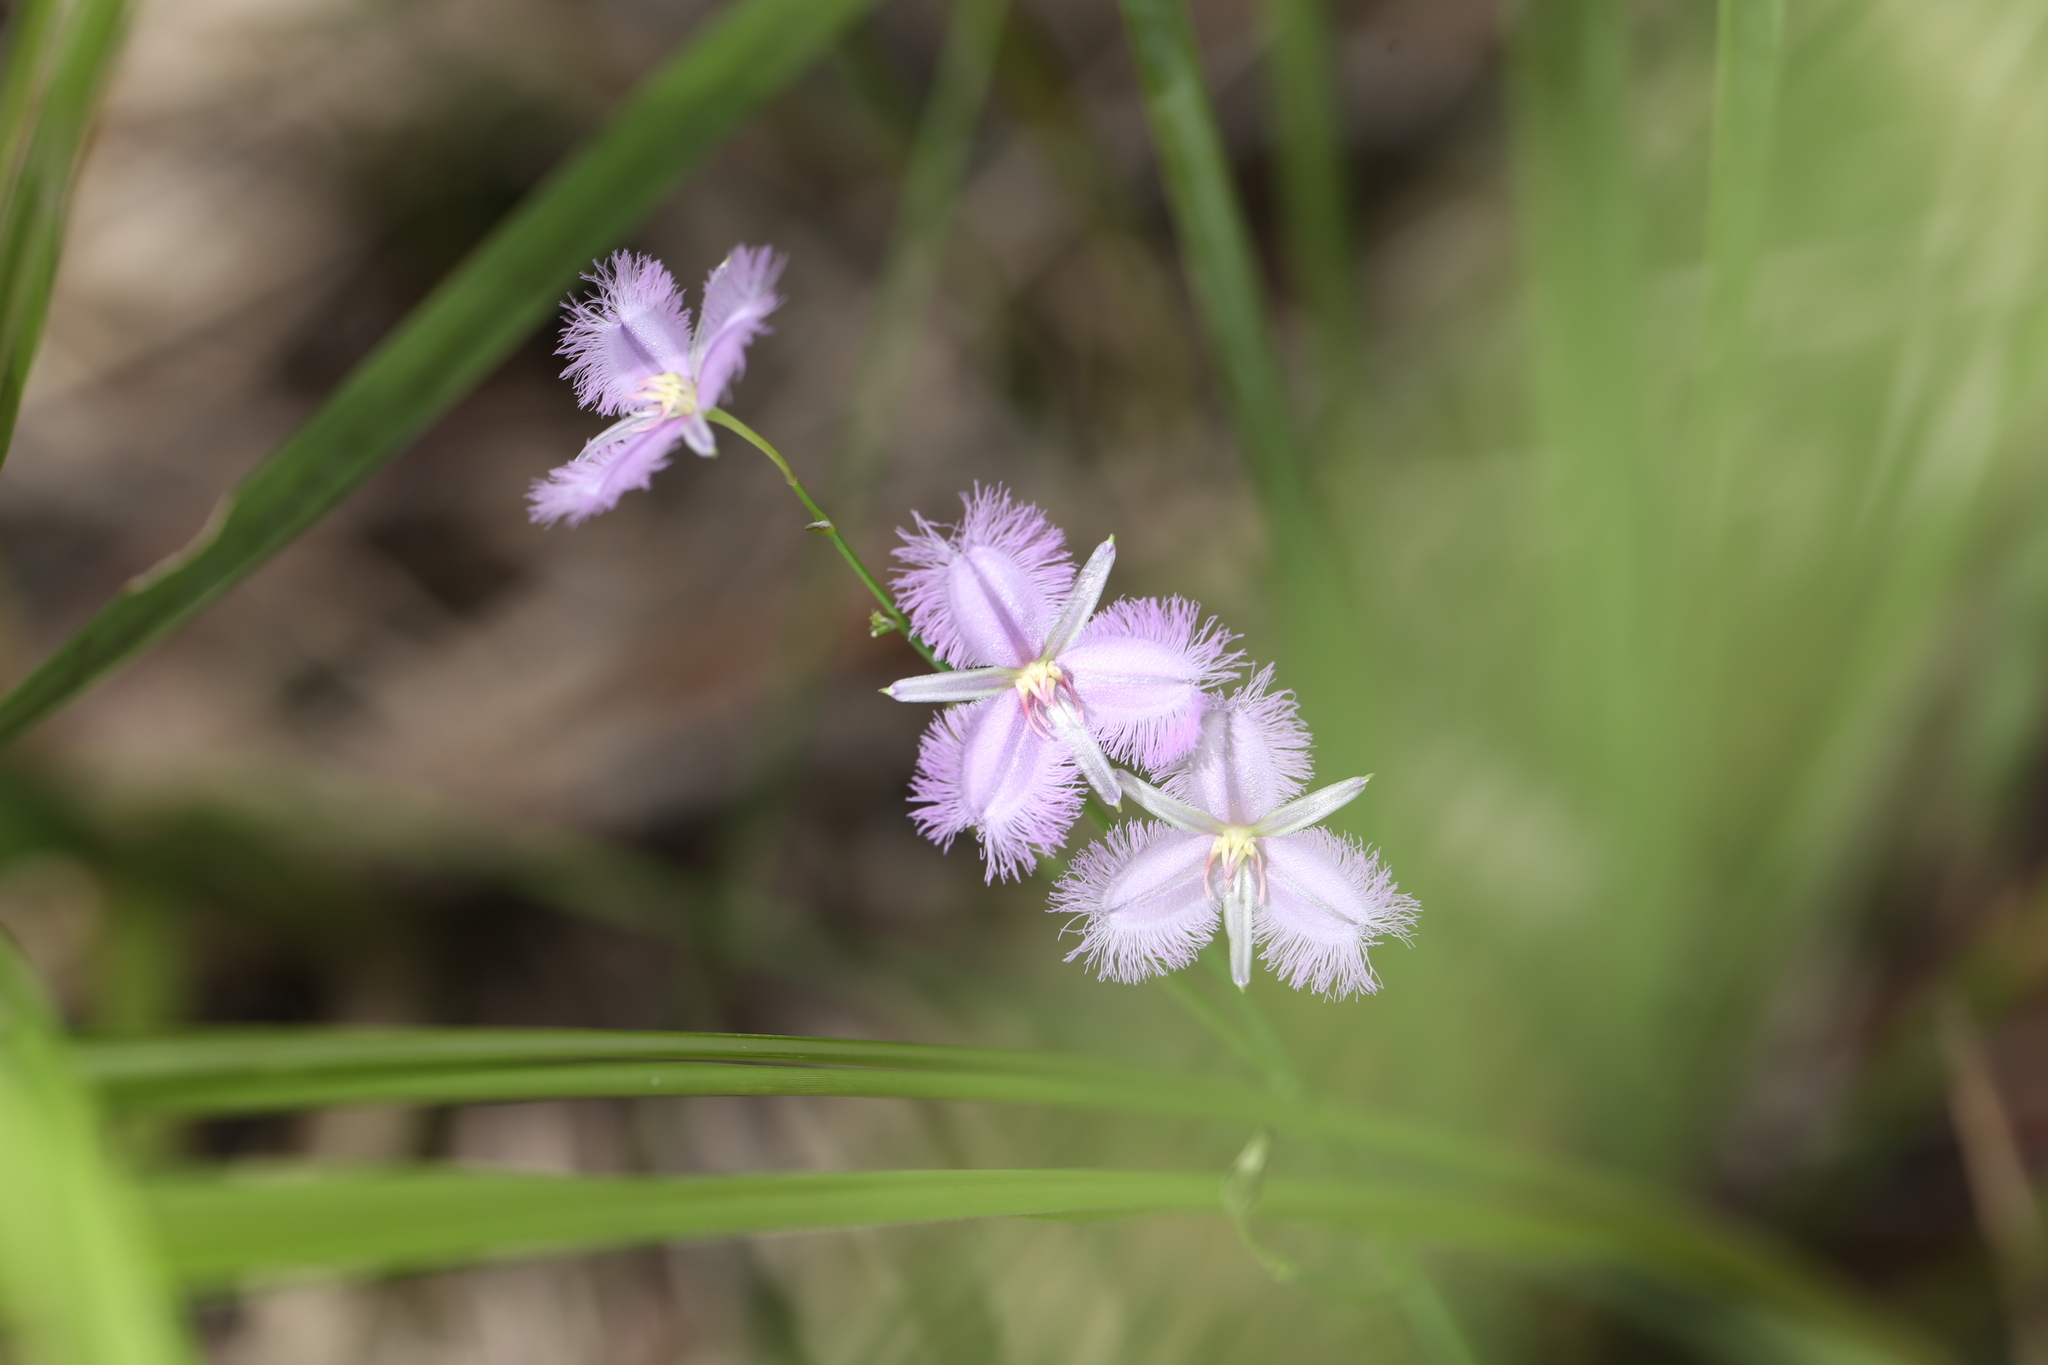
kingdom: Plantae
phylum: Tracheophyta
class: Liliopsida
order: Asparagales
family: Asparagaceae
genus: Thysanotus
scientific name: Thysanotus tuberosus
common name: Common fringed-lily
